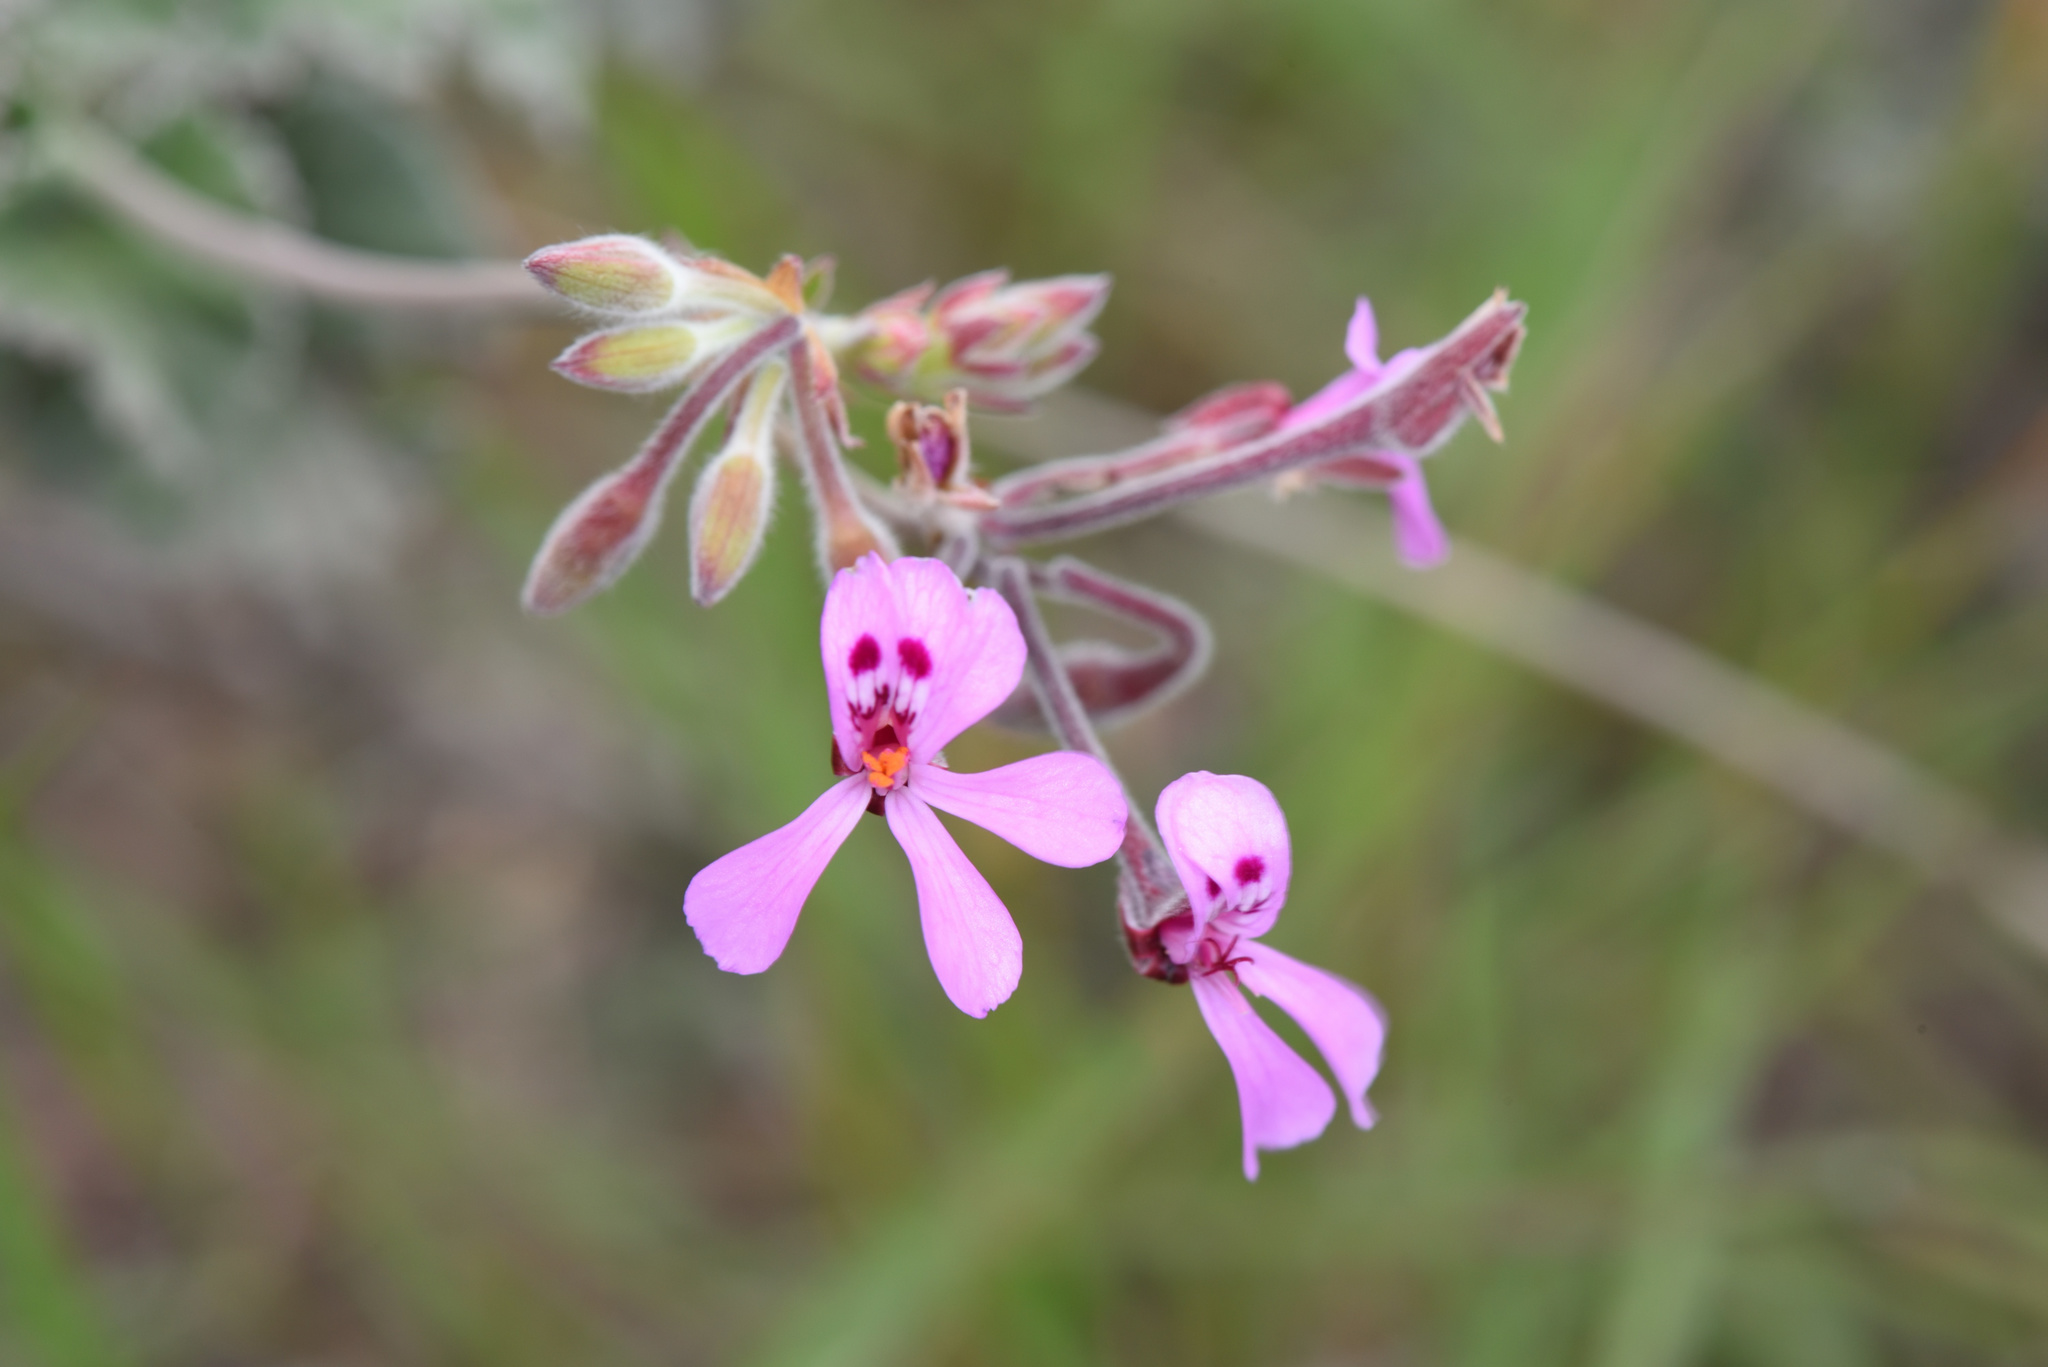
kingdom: Plantae
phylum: Tracheophyta
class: Magnoliopsida
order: Geraniales
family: Geraniaceae
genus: Pelargonium
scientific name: Pelargonium reniforme
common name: Kidney-leaf pelargonium
